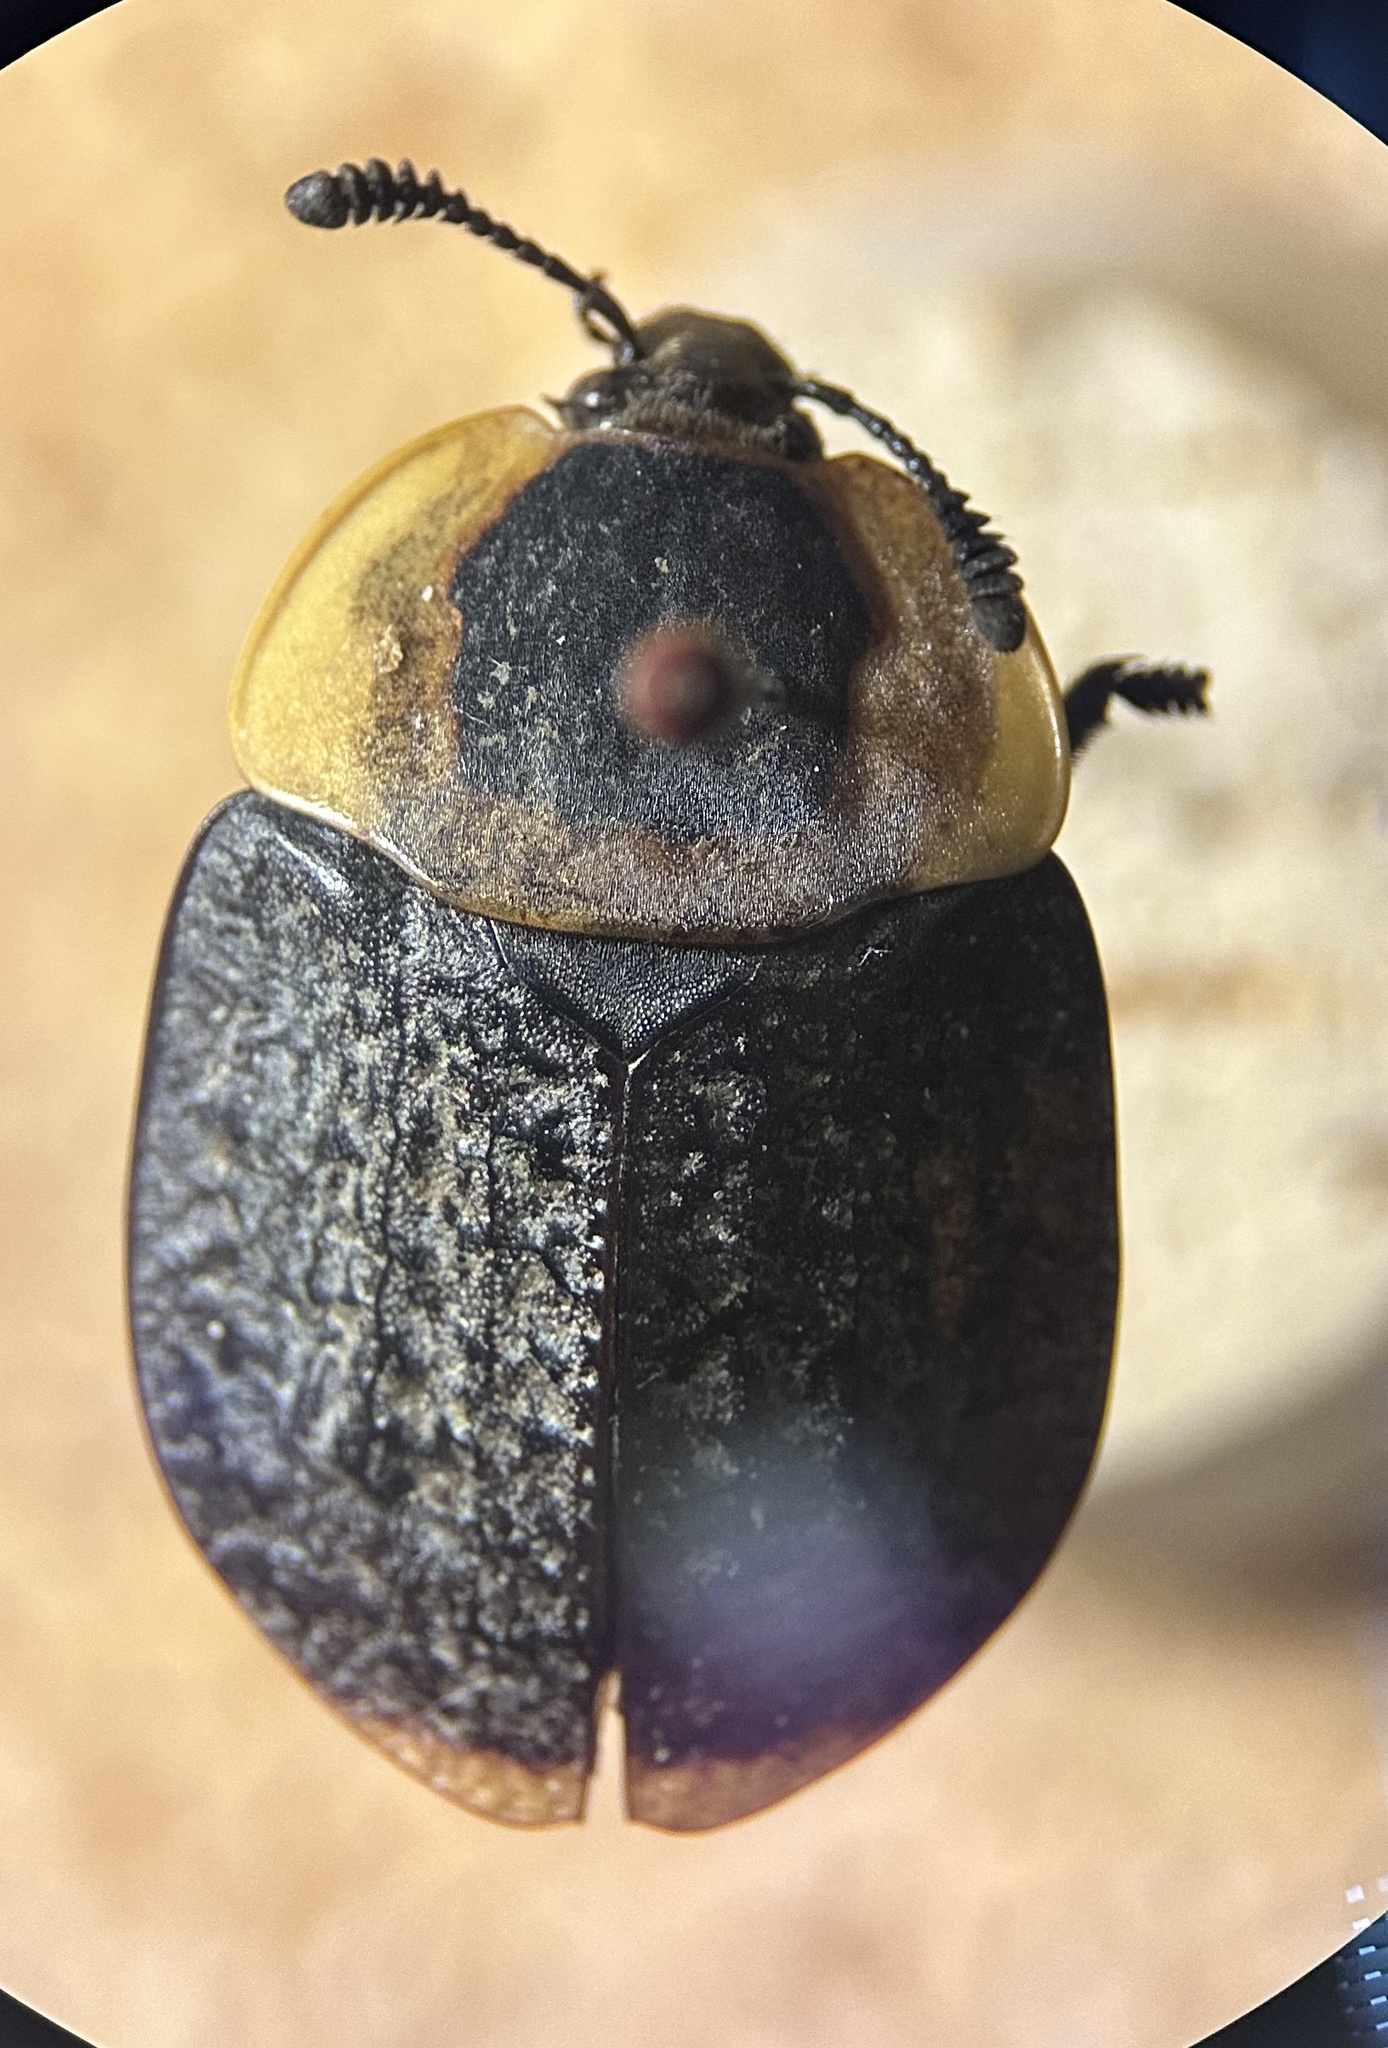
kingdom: Animalia
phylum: Arthropoda
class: Insecta
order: Coleoptera
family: Staphylinidae
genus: Necrophila
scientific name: Necrophila americana
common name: American carrion beetle
